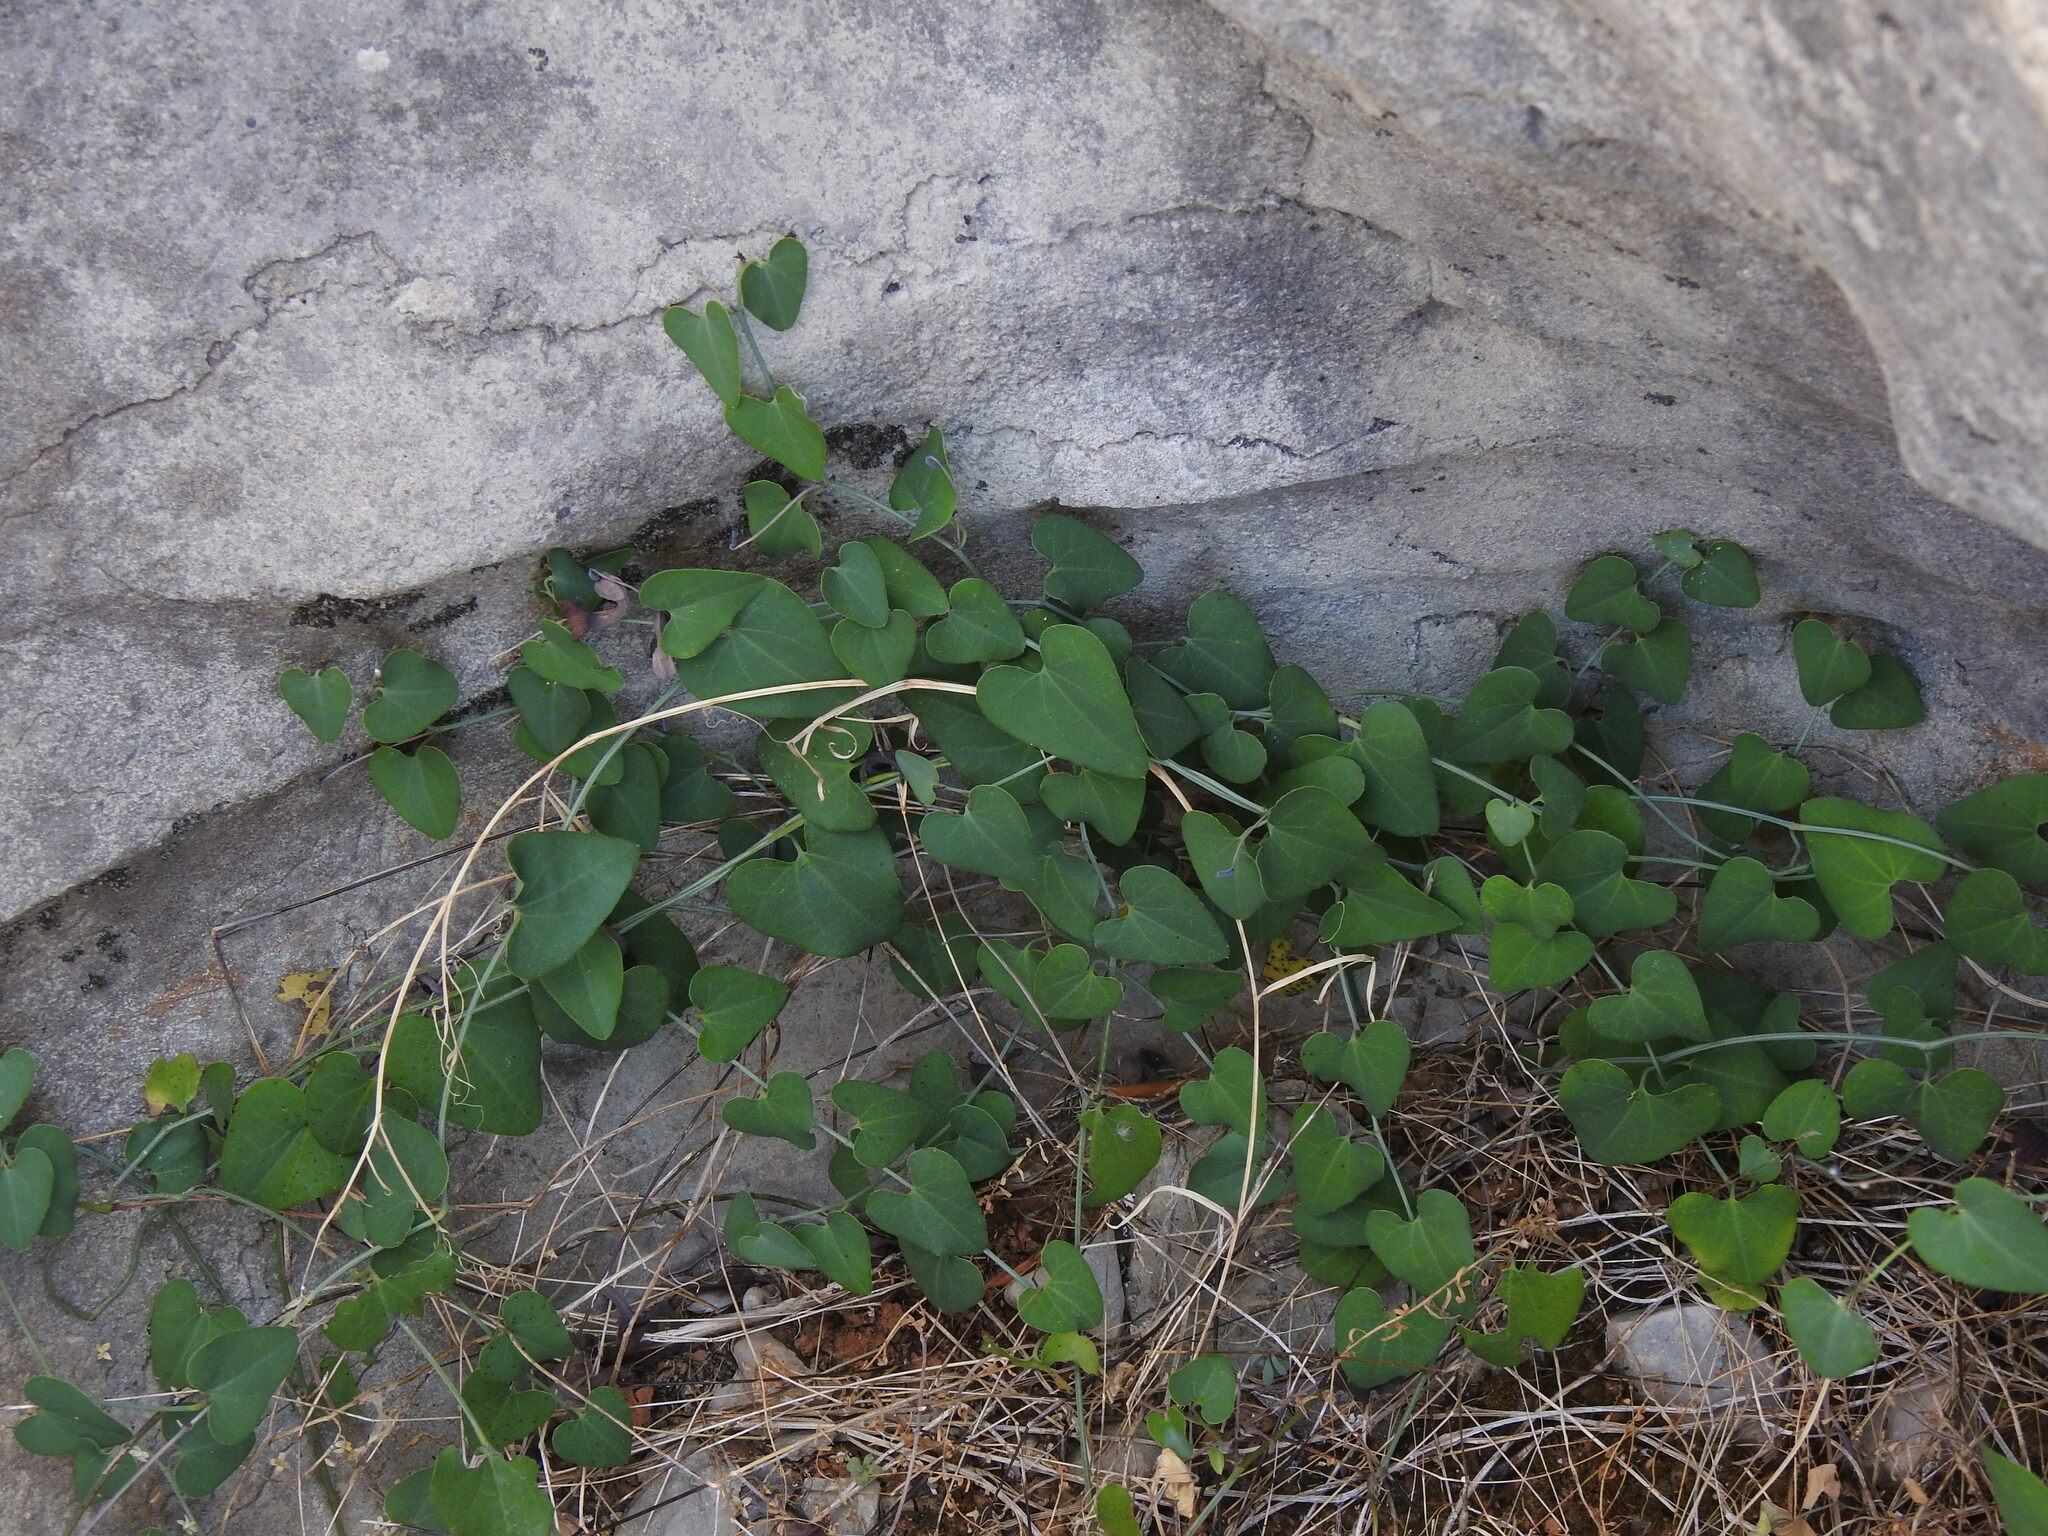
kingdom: Plantae
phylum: Tracheophyta
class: Magnoliopsida
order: Piperales
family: Aristolochiaceae
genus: Aristolochia
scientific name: Aristolochia baetica
